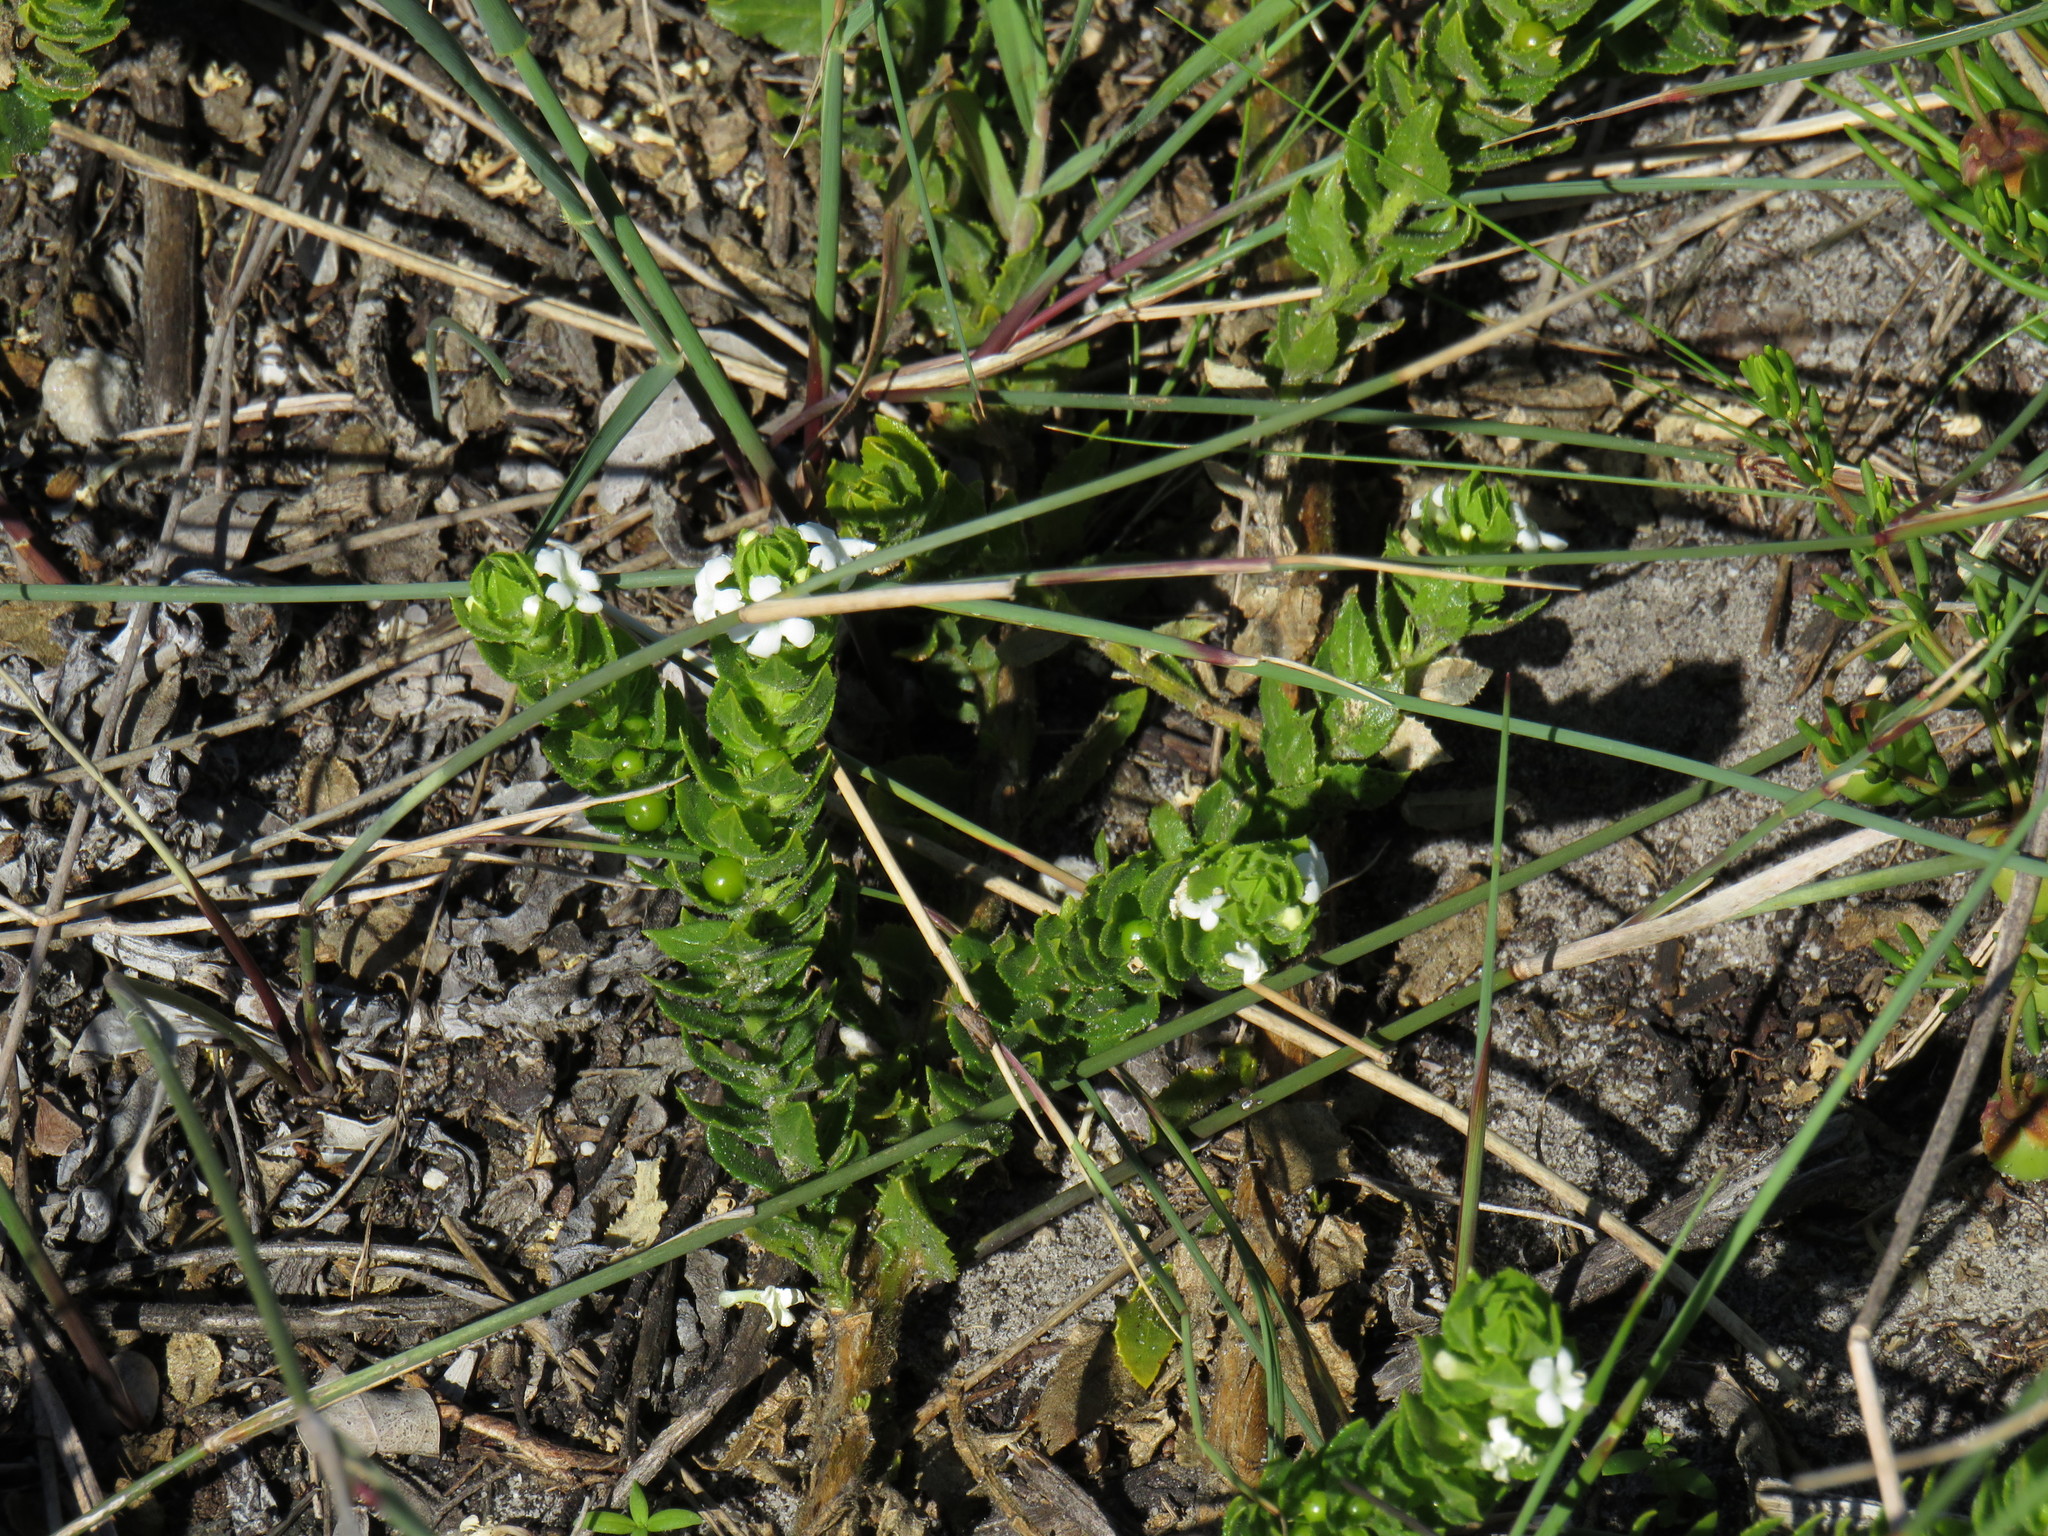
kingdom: Plantae
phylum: Tracheophyta
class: Magnoliopsida
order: Lamiales
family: Scrophulariaceae
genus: Oftia
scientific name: Oftia africana
